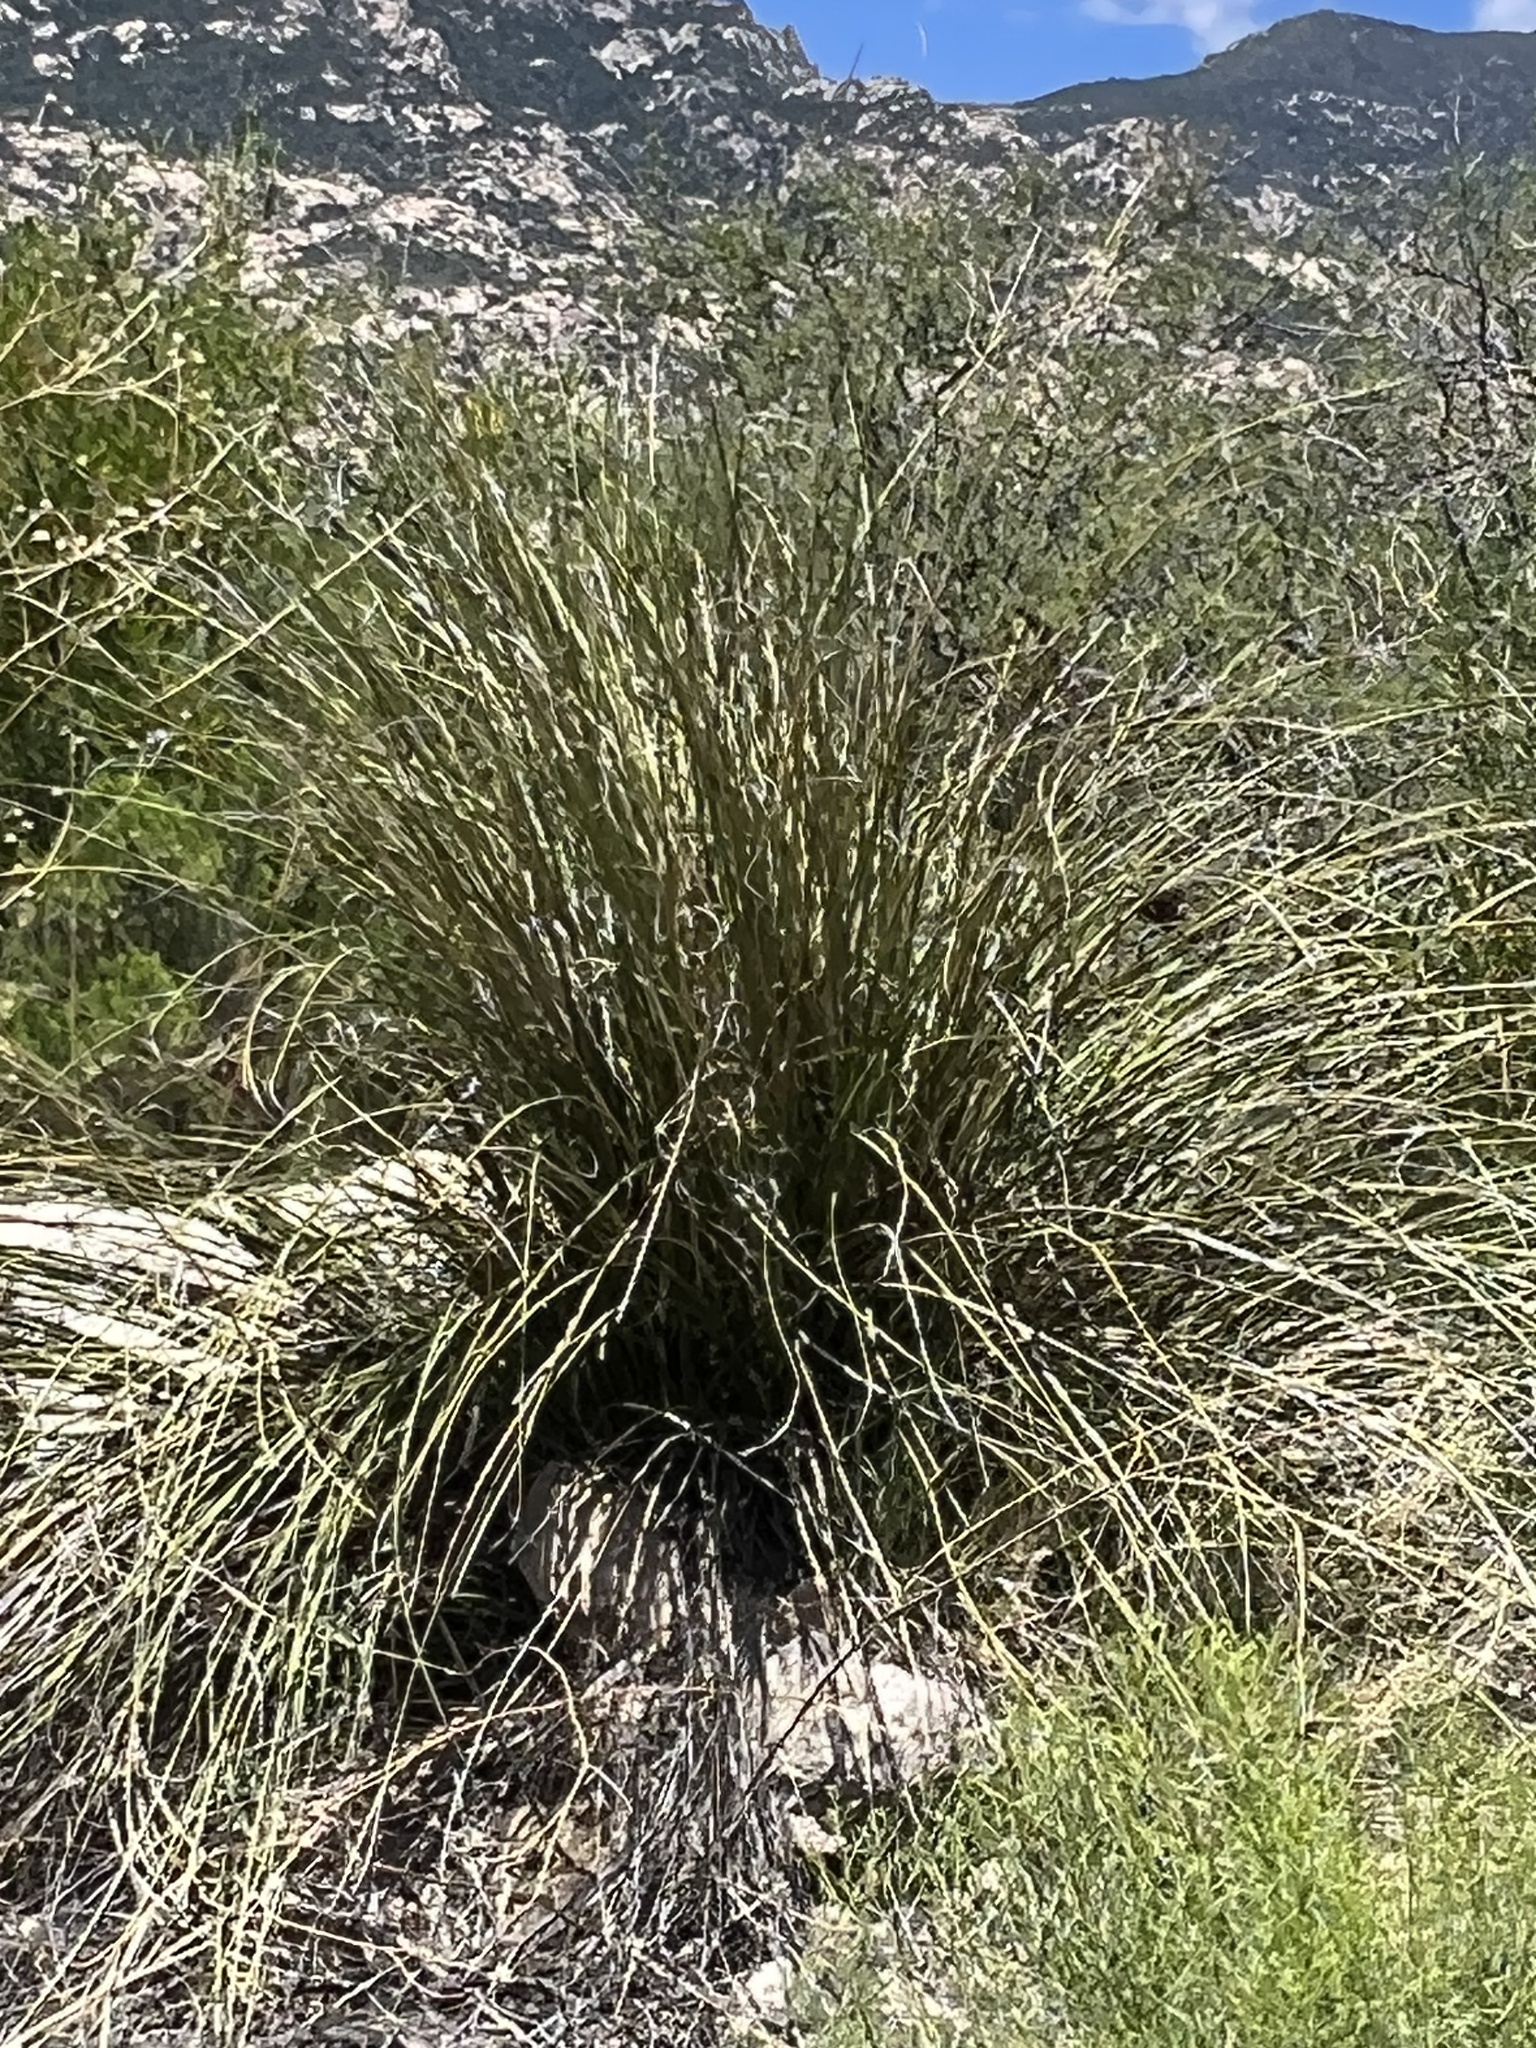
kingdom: Plantae
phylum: Tracheophyta
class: Liliopsida
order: Asparagales
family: Asparagaceae
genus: Nolina
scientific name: Nolina microcarpa
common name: Bear-grass
